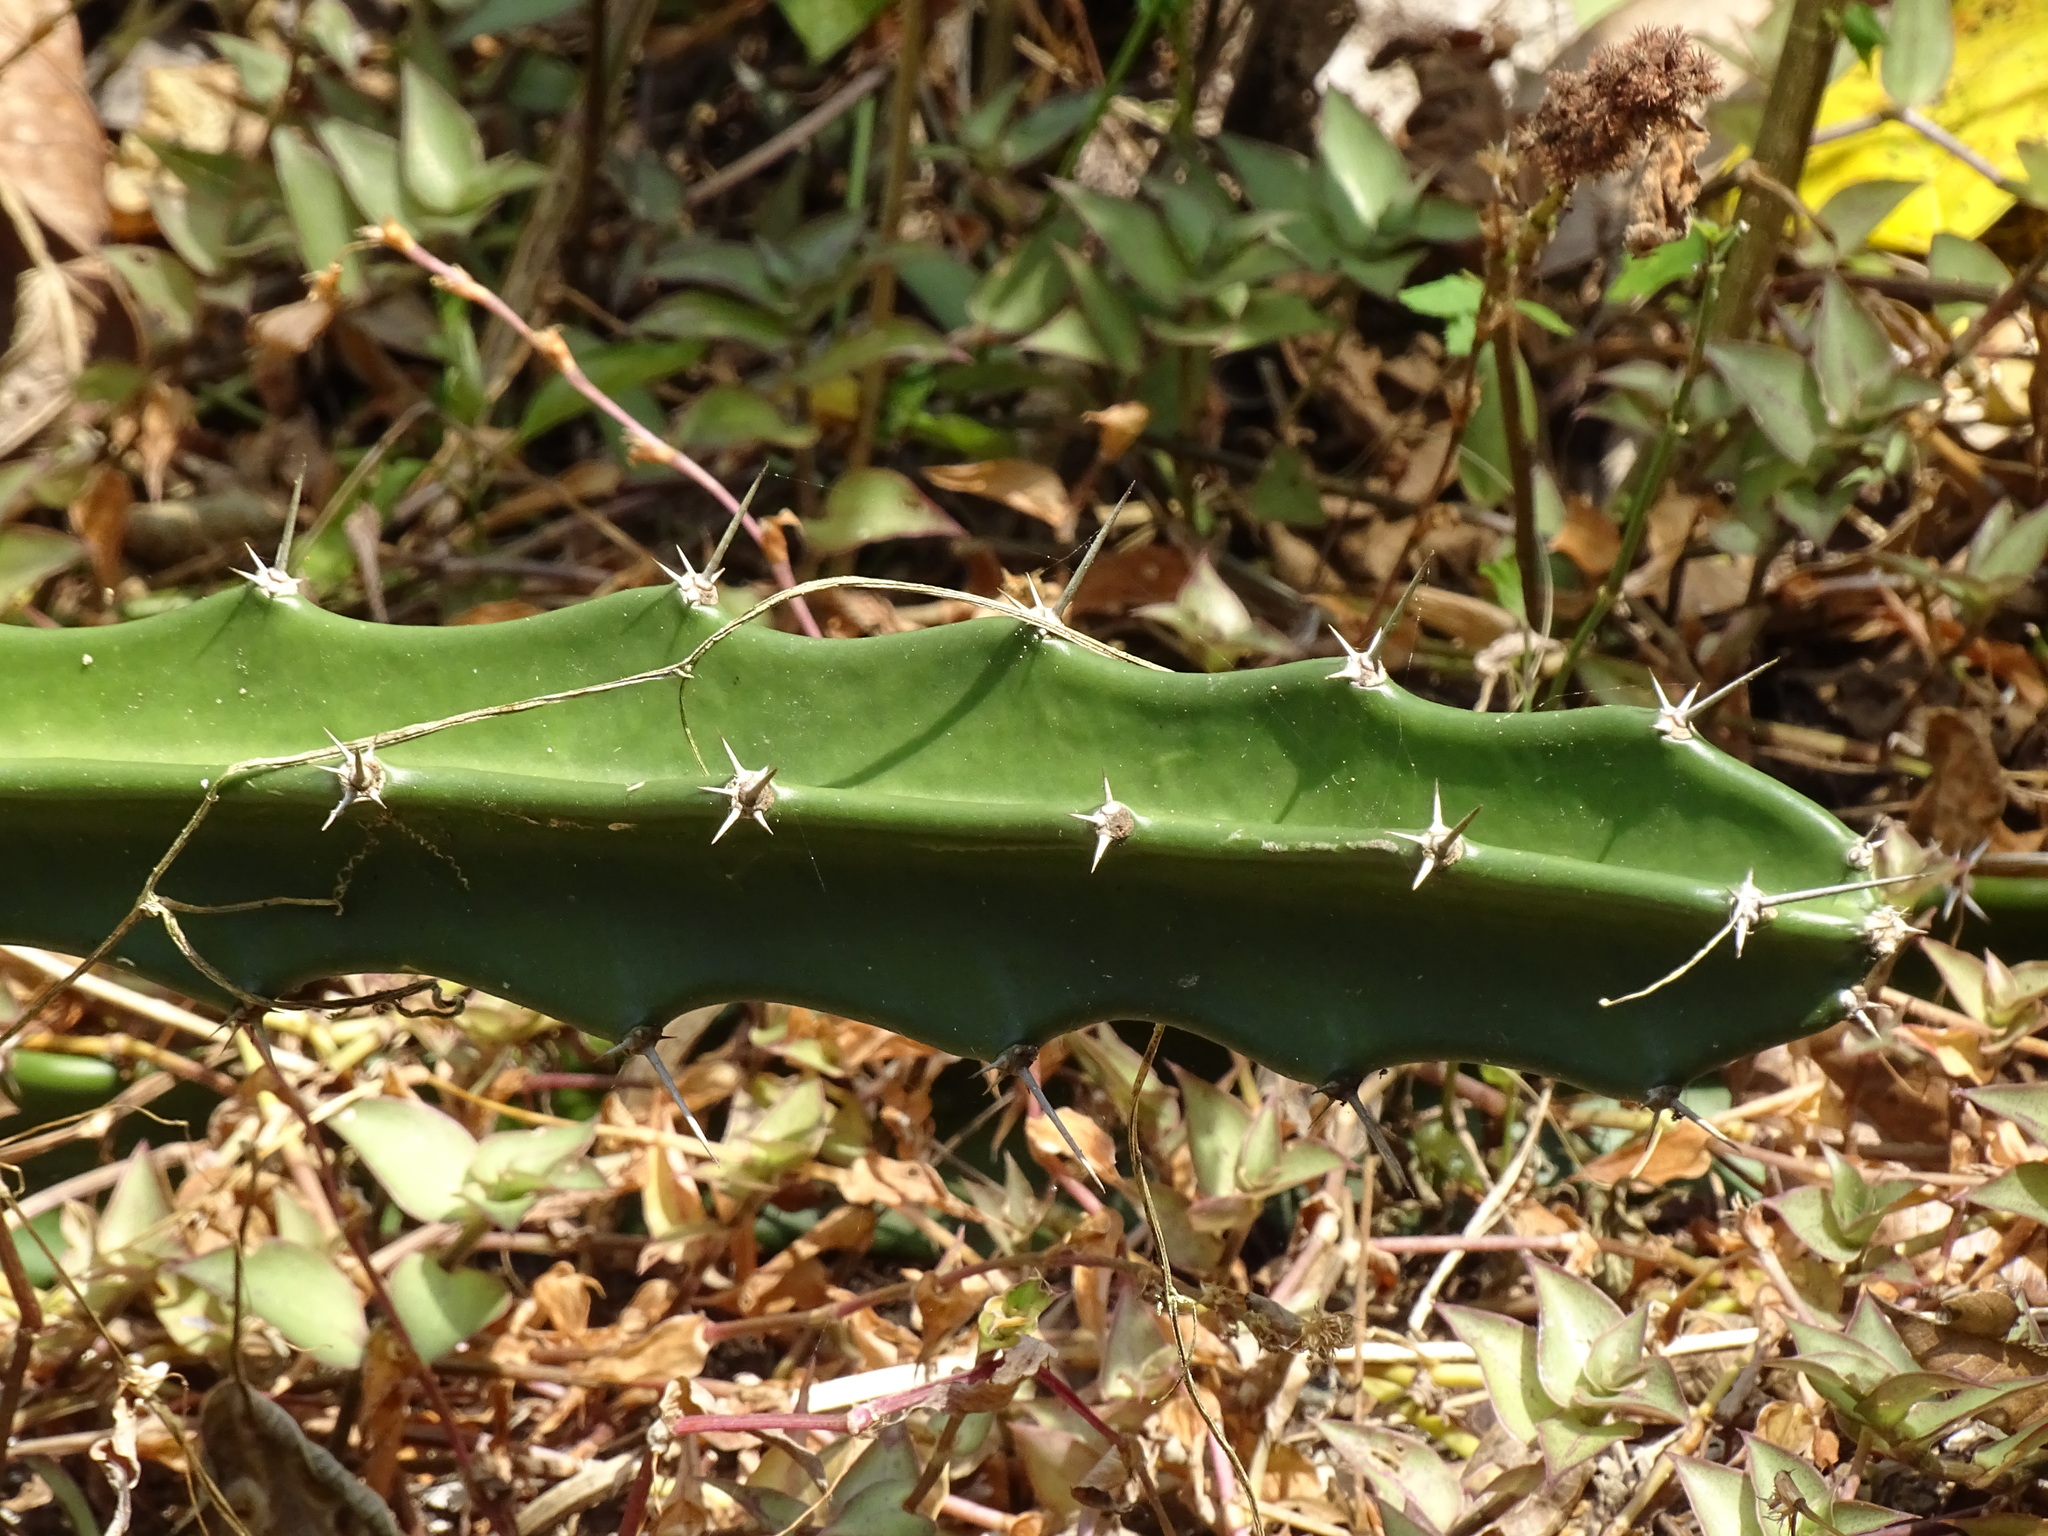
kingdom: Plantae
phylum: Tracheophyta
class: Magnoliopsida
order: Caryophyllales
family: Cactaceae
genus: Acanthocereus
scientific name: Acanthocereus tetragonus
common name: Triangle cactus
